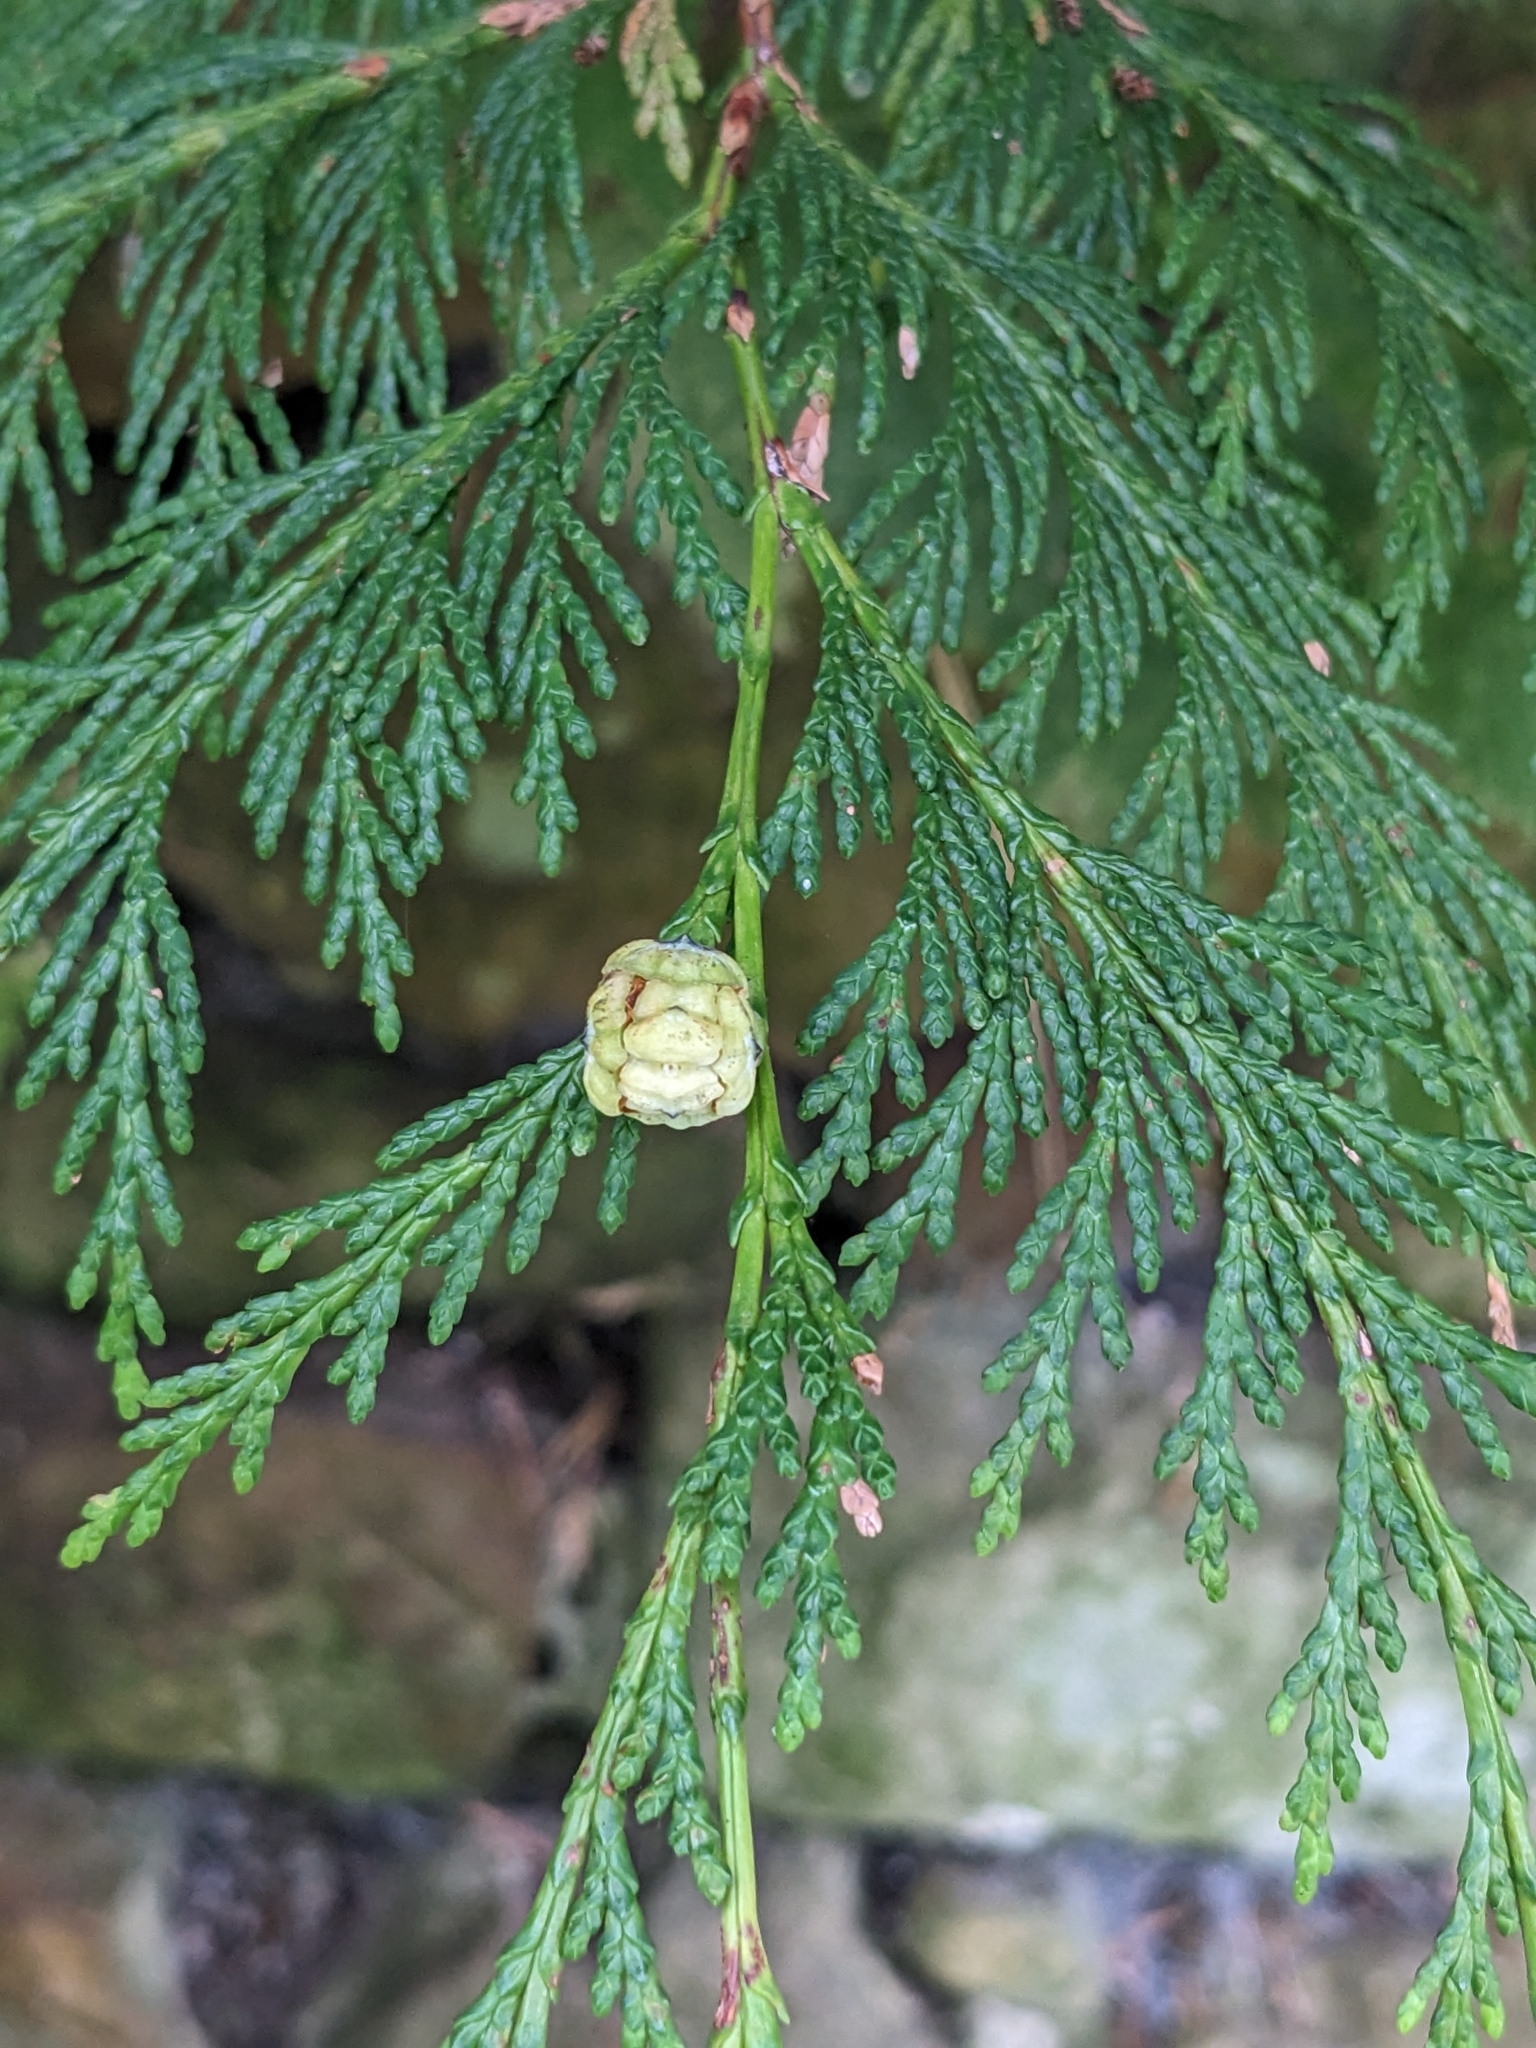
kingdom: Plantae
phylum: Tracheophyta
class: Pinopsida
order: Pinales
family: Cupressaceae
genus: Chamaecyparis
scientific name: Chamaecyparis lawsoniana
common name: Lawson's cypress
